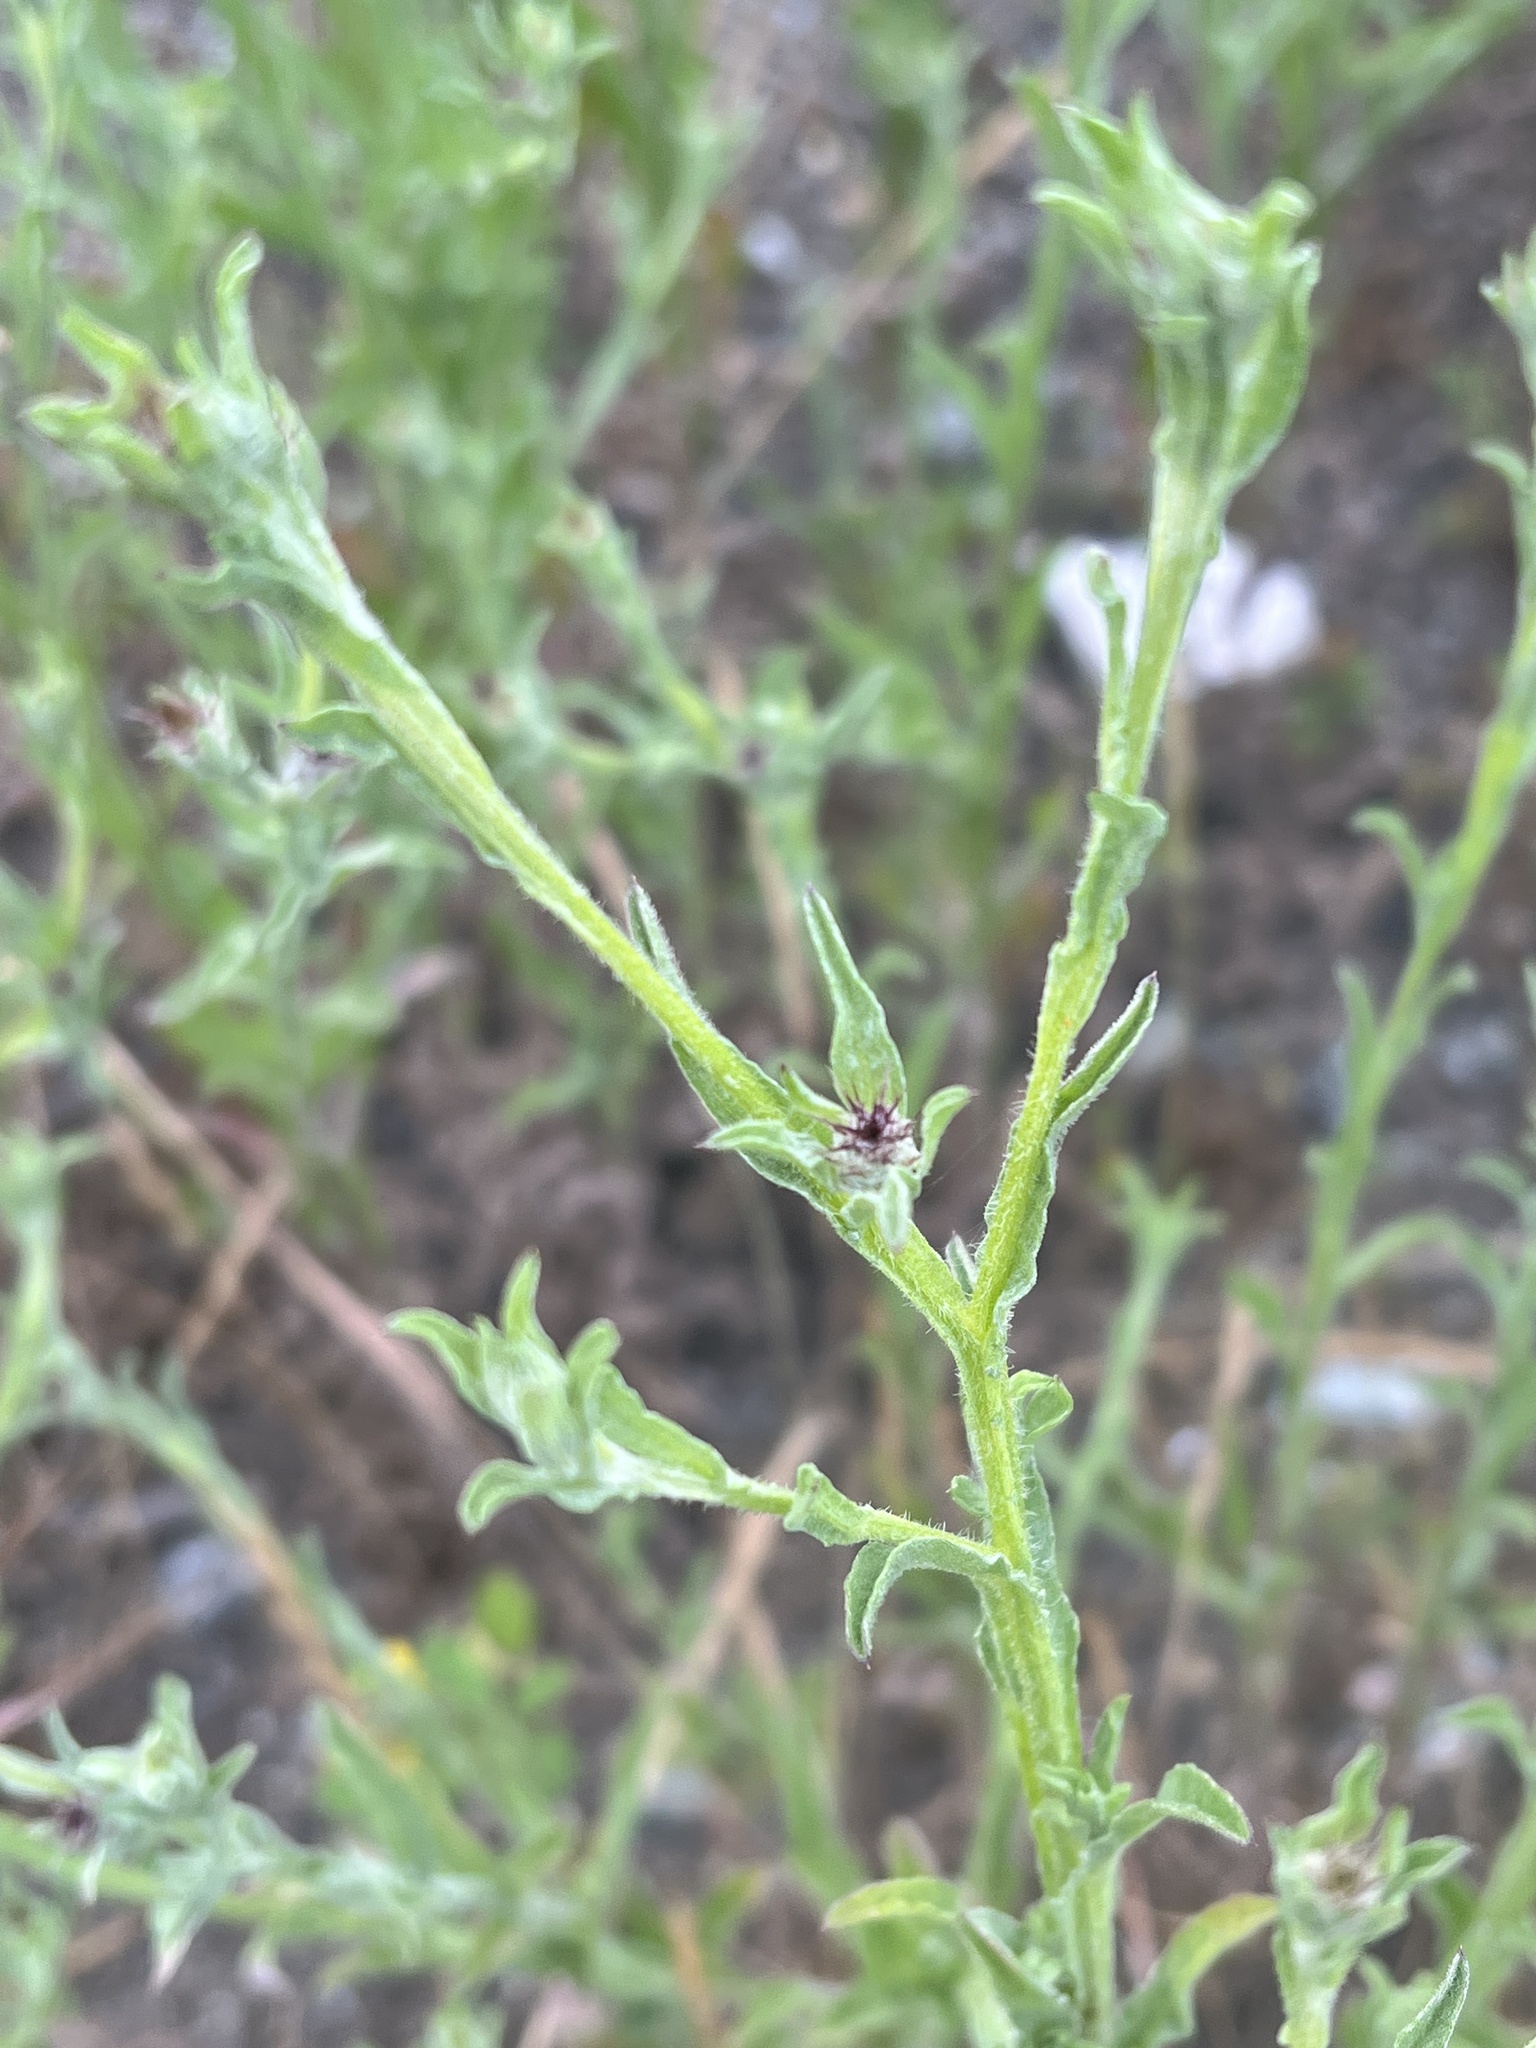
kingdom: Plantae
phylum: Tracheophyta
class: Magnoliopsida
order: Asterales
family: Asteraceae
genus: Centaurea
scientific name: Centaurea melitensis
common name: Maltese star-thistle
